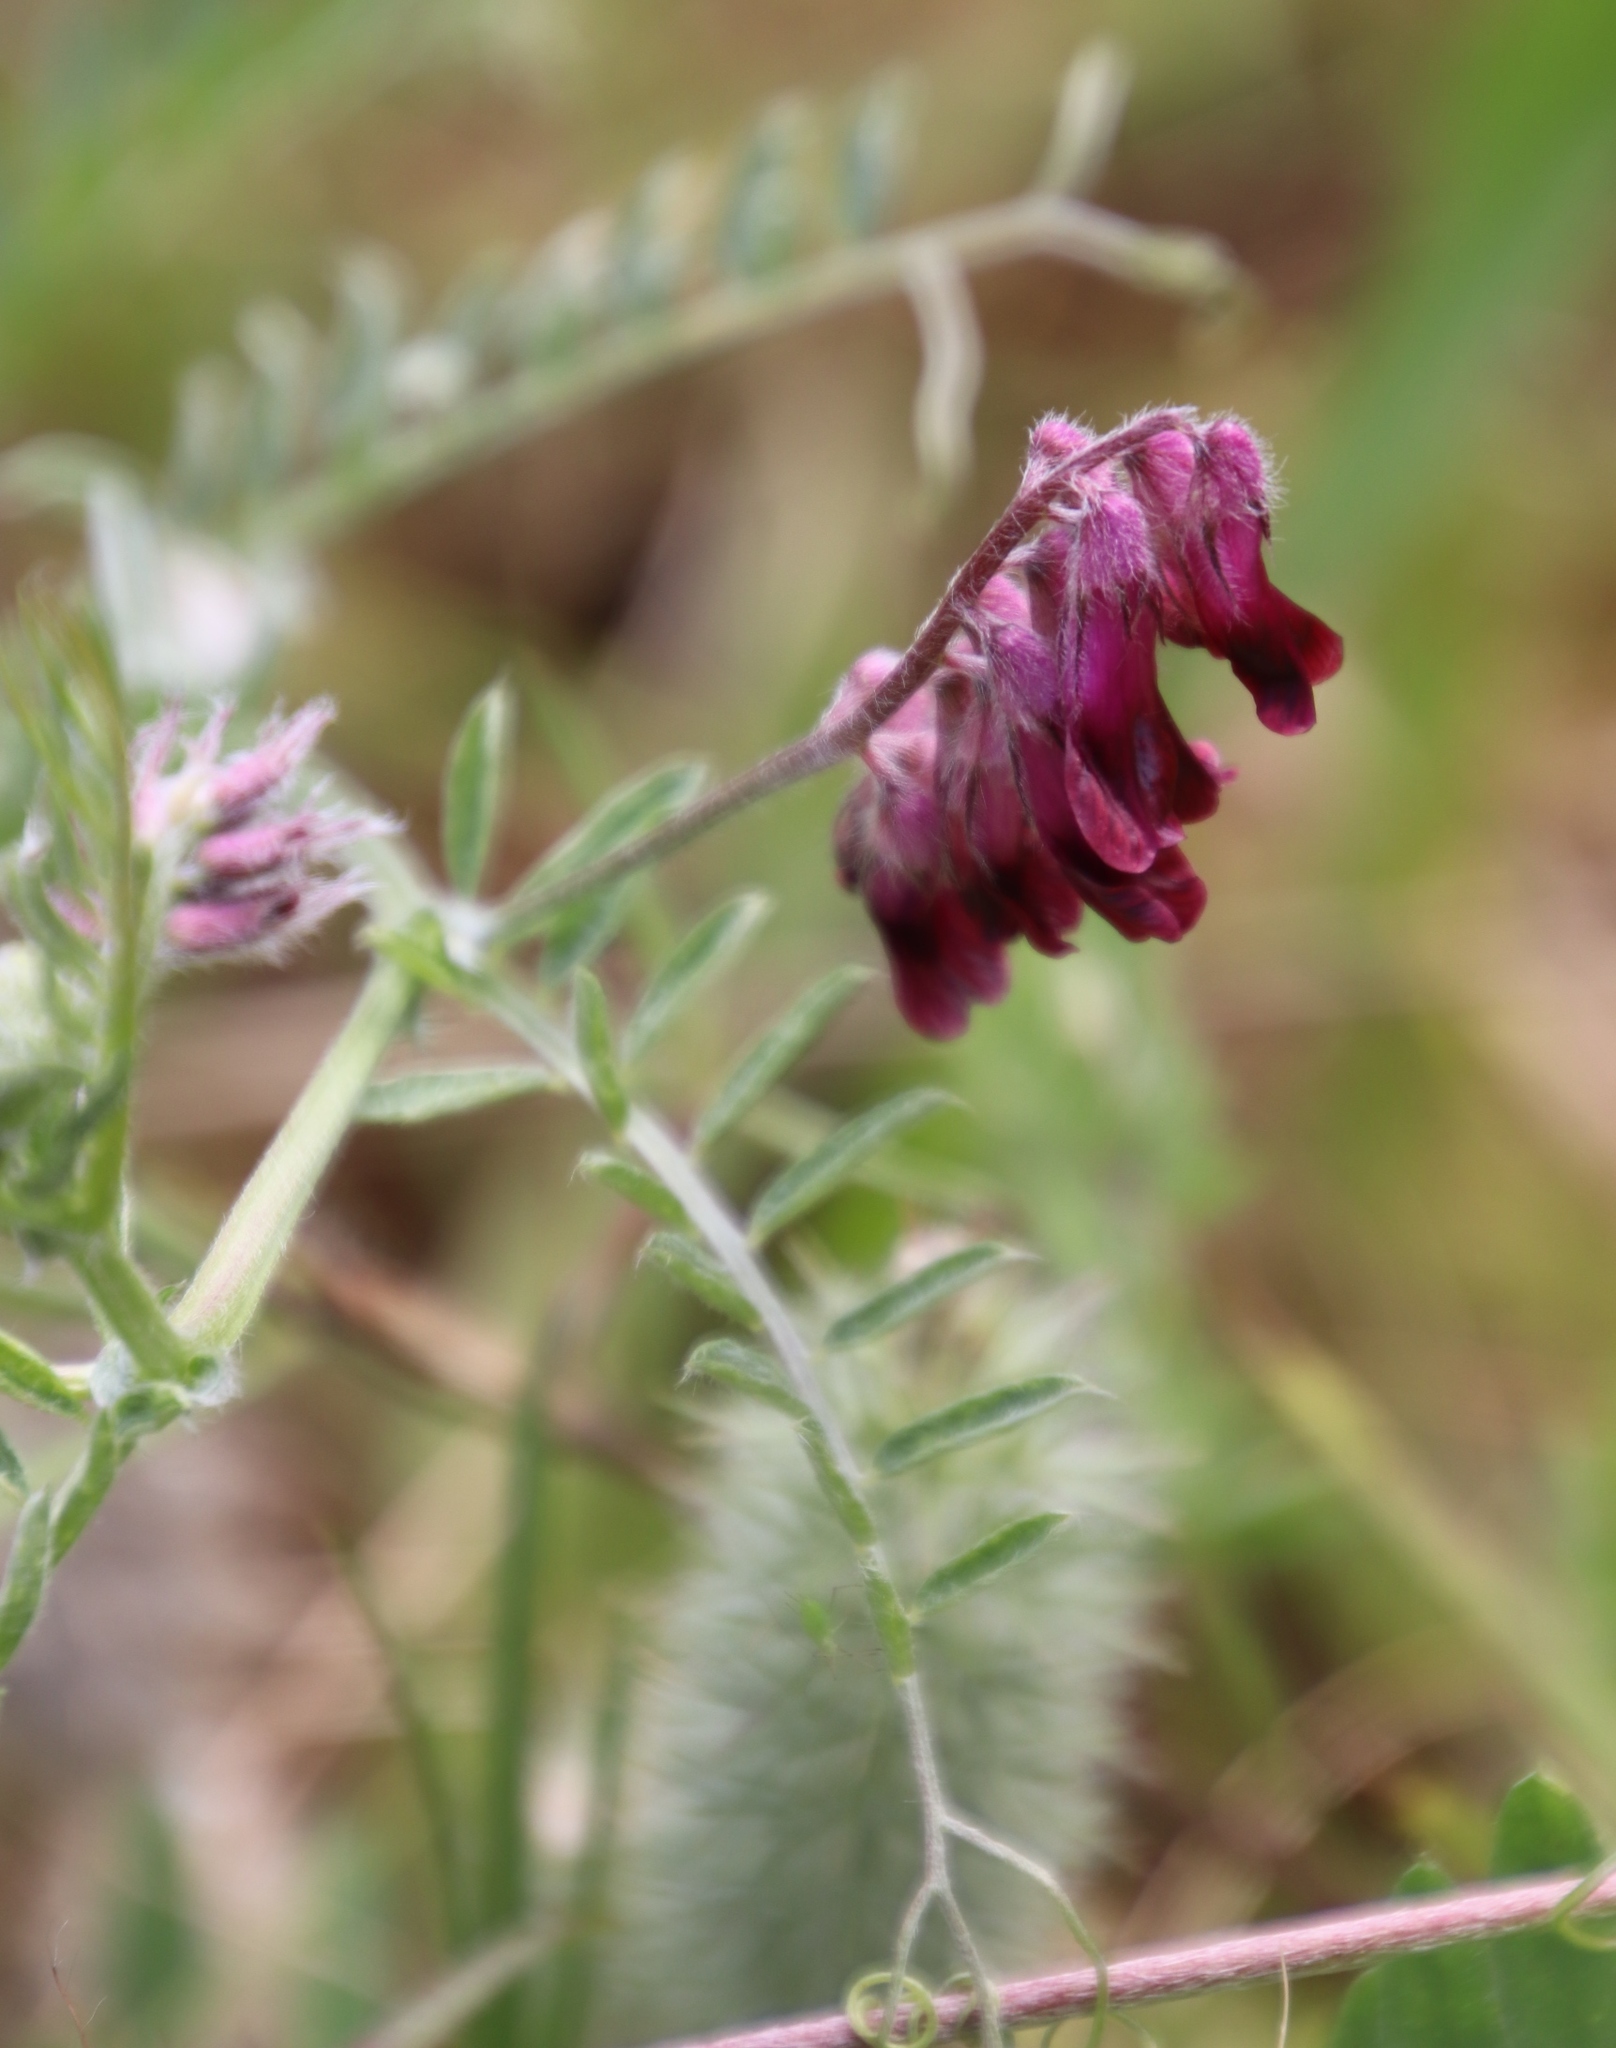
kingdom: Plantae
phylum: Tracheophyta
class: Magnoliopsida
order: Fabales
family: Fabaceae
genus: Vicia
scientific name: Vicia benghalensis
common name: Purple vetch
